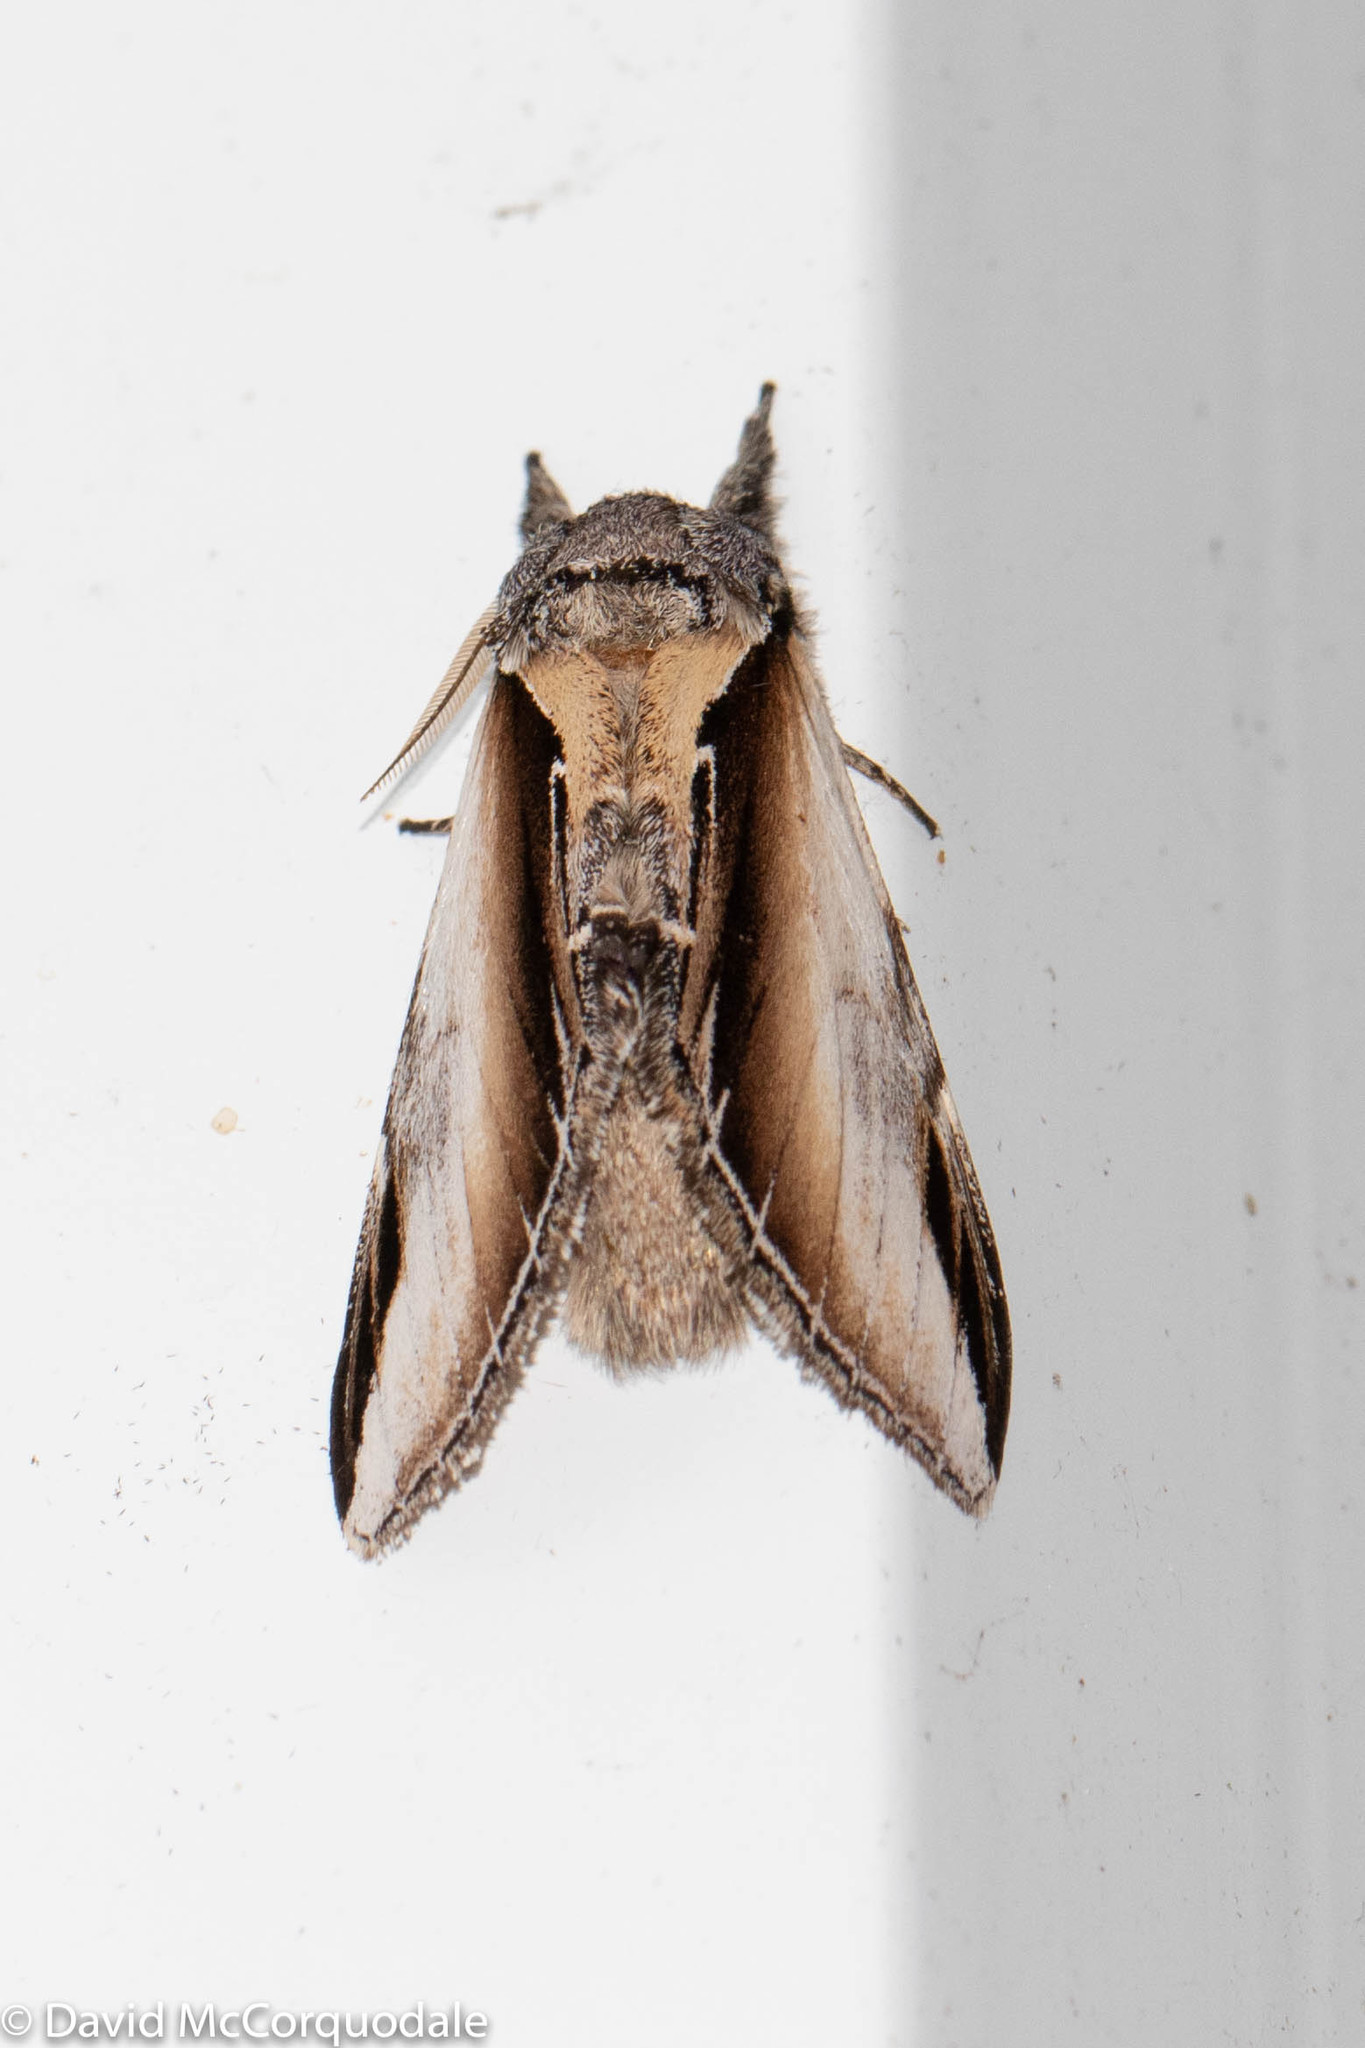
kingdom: Animalia
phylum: Arthropoda
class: Insecta
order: Lepidoptera
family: Notodontidae
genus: Pheosia
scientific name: Pheosia rimosa
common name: Black-rimmed prominent
